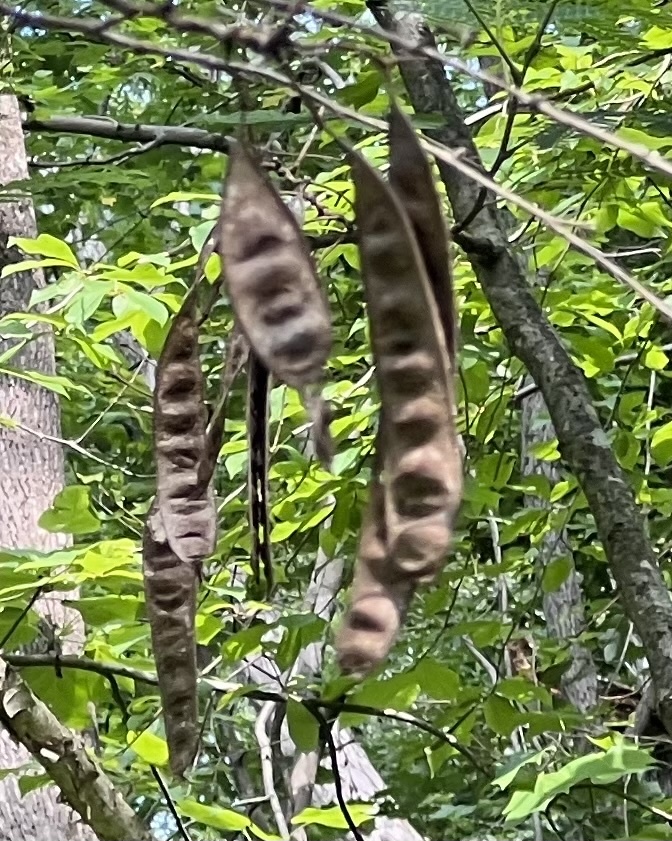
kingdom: Plantae
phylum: Tracheophyta
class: Magnoliopsida
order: Fabales
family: Fabaceae
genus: Albizia
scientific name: Albizia julibrissin
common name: Silktree
